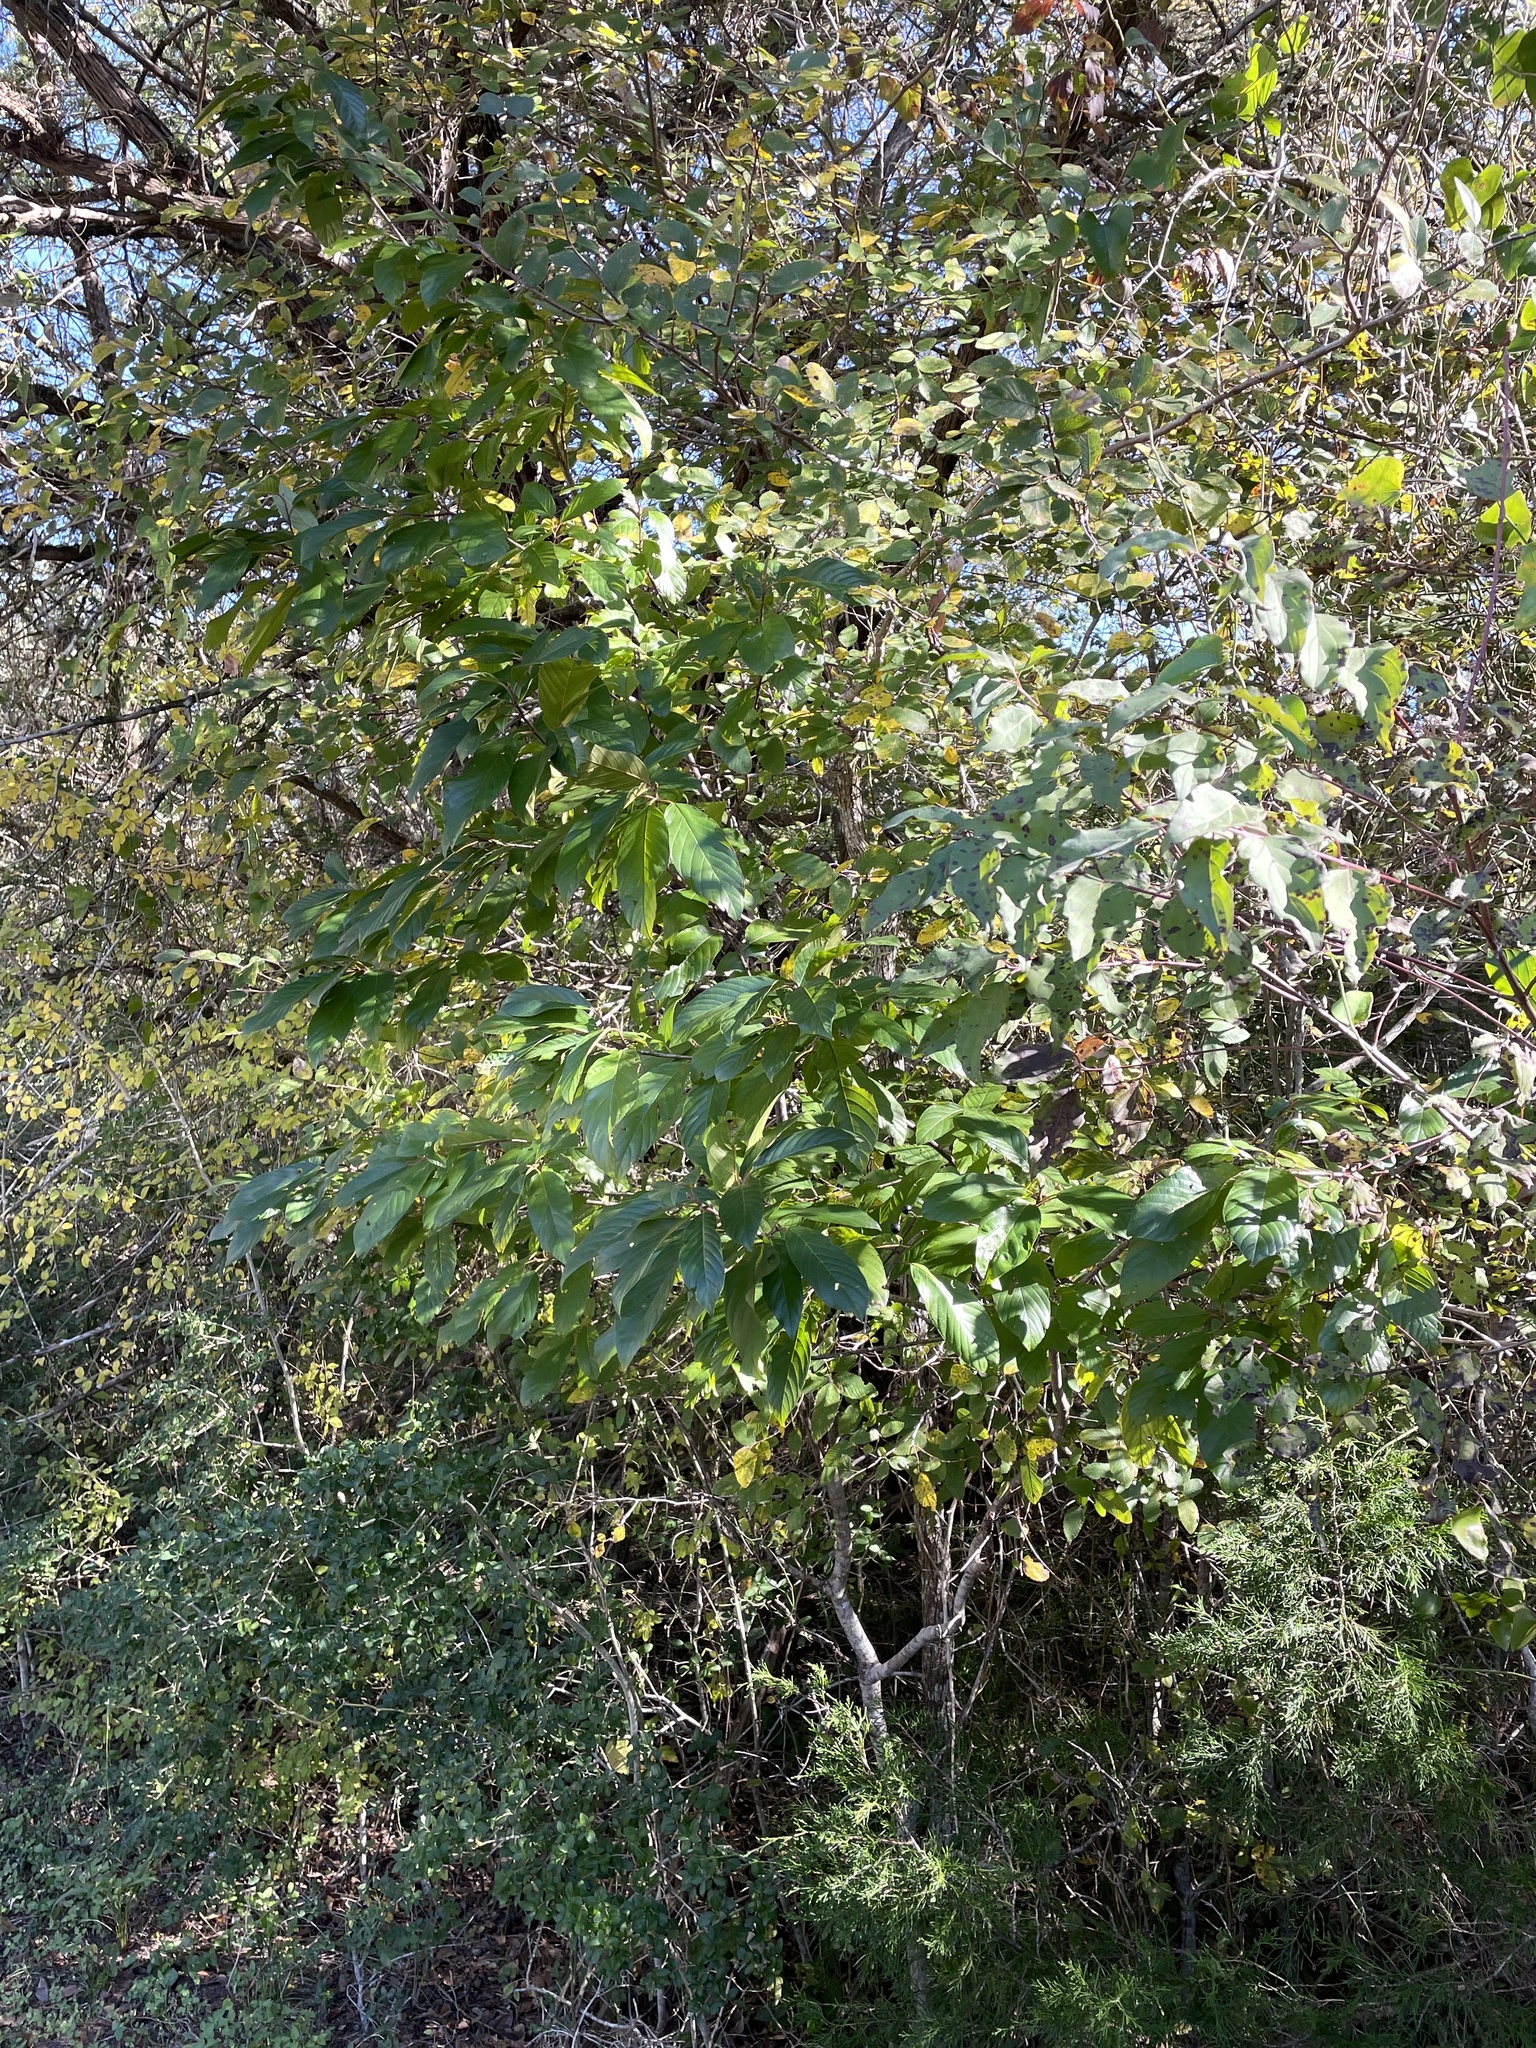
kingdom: Plantae
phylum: Tracheophyta
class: Magnoliopsida
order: Rosales
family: Rhamnaceae
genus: Frangula
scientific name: Frangula caroliniana
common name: Carolina buckthorn
